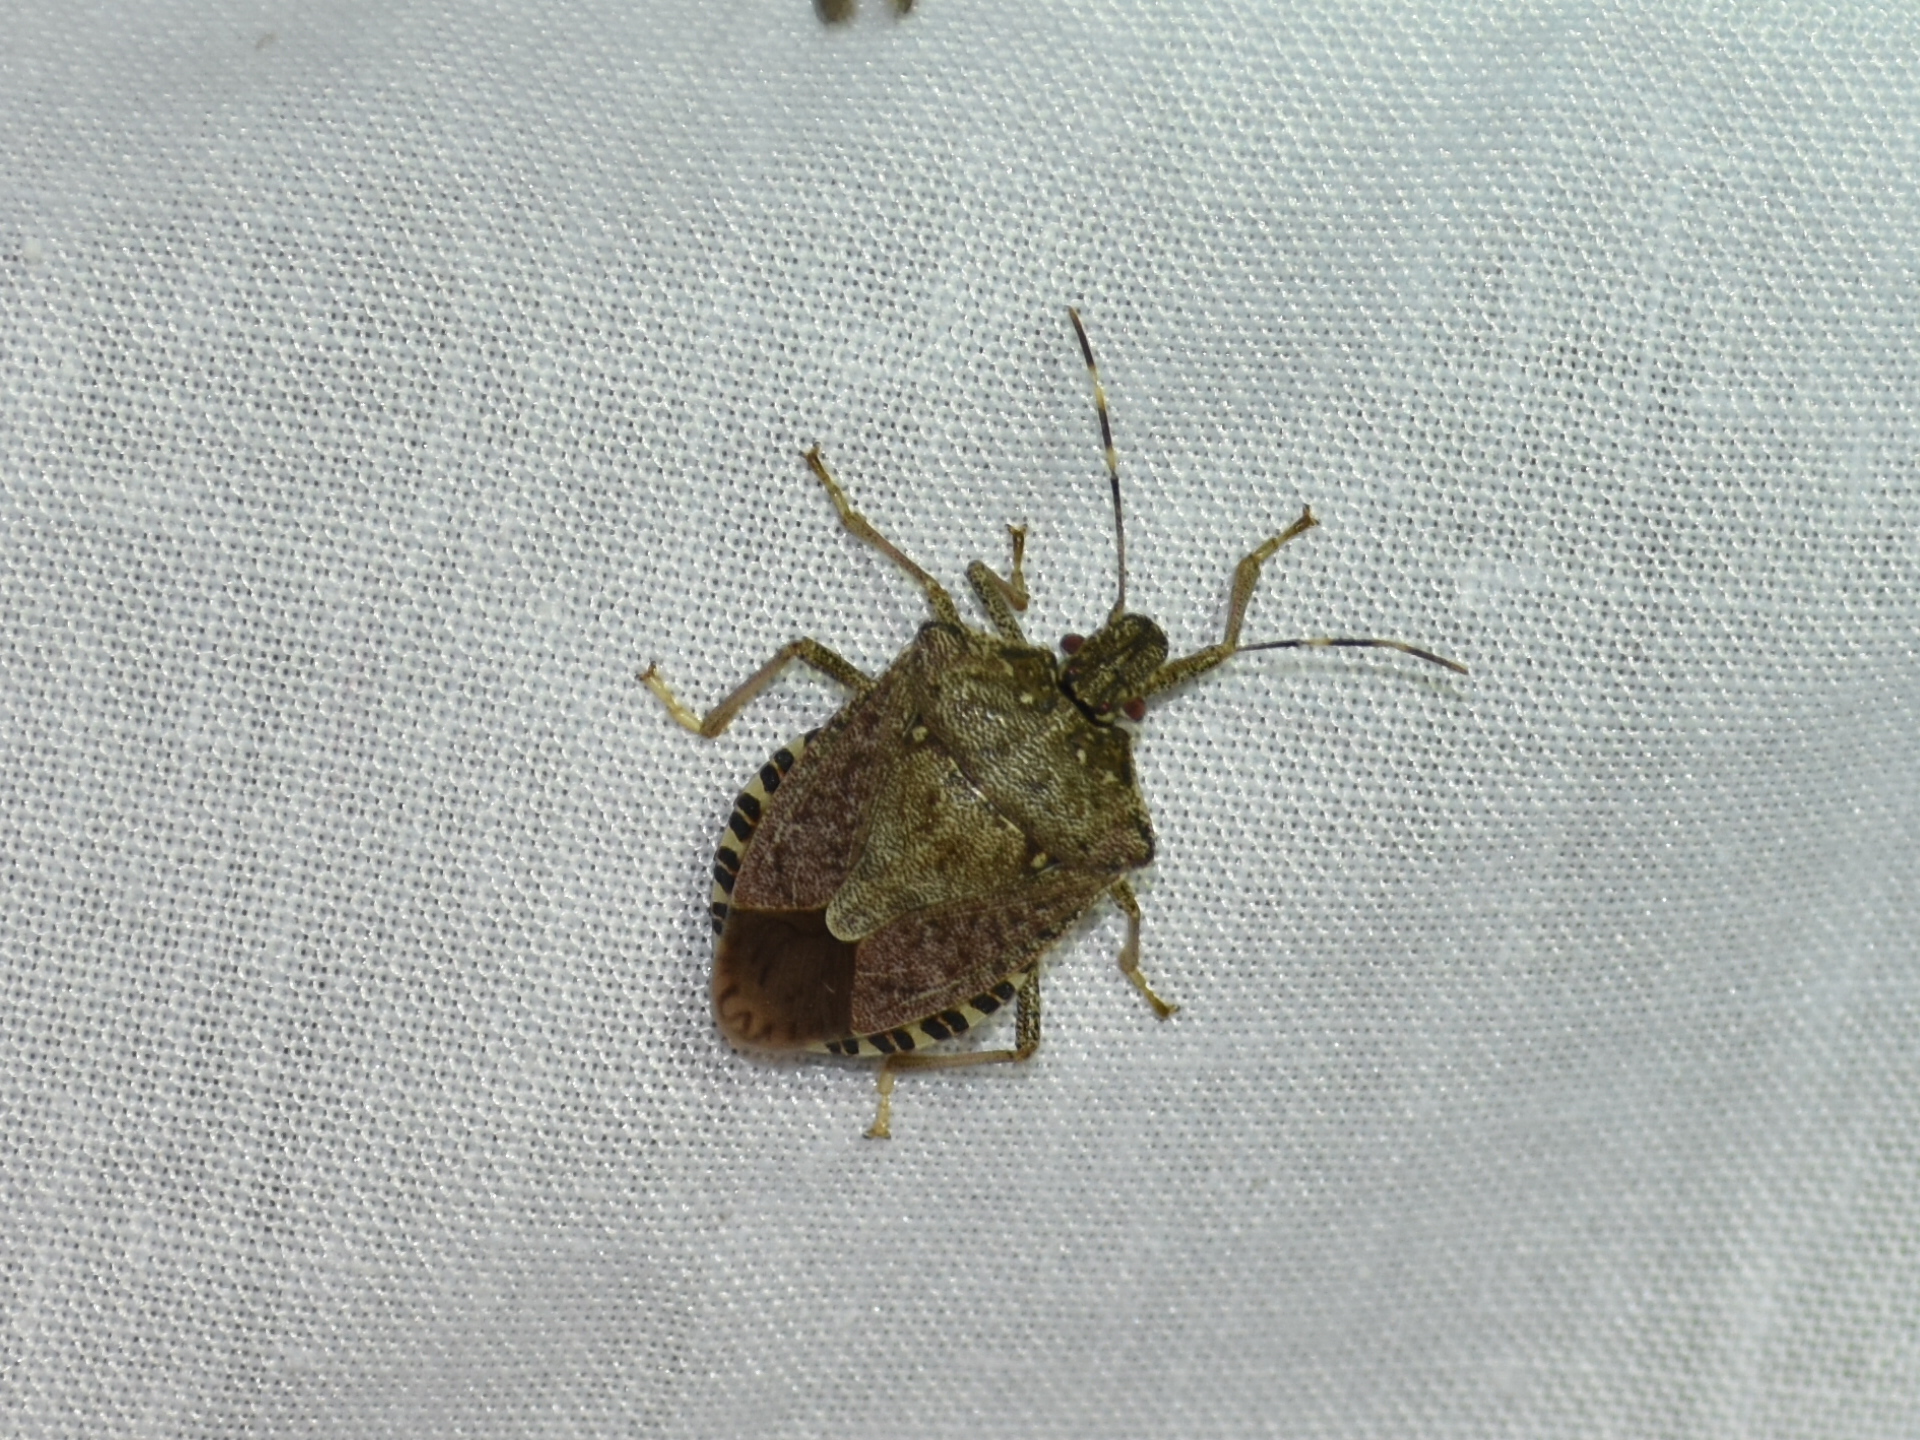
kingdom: Animalia
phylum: Arthropoda
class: Insecta
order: Hemiptera
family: Pentatomidae
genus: Halyomorpha
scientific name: Halyomorpha halys
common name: Brown marmorated stink bug
